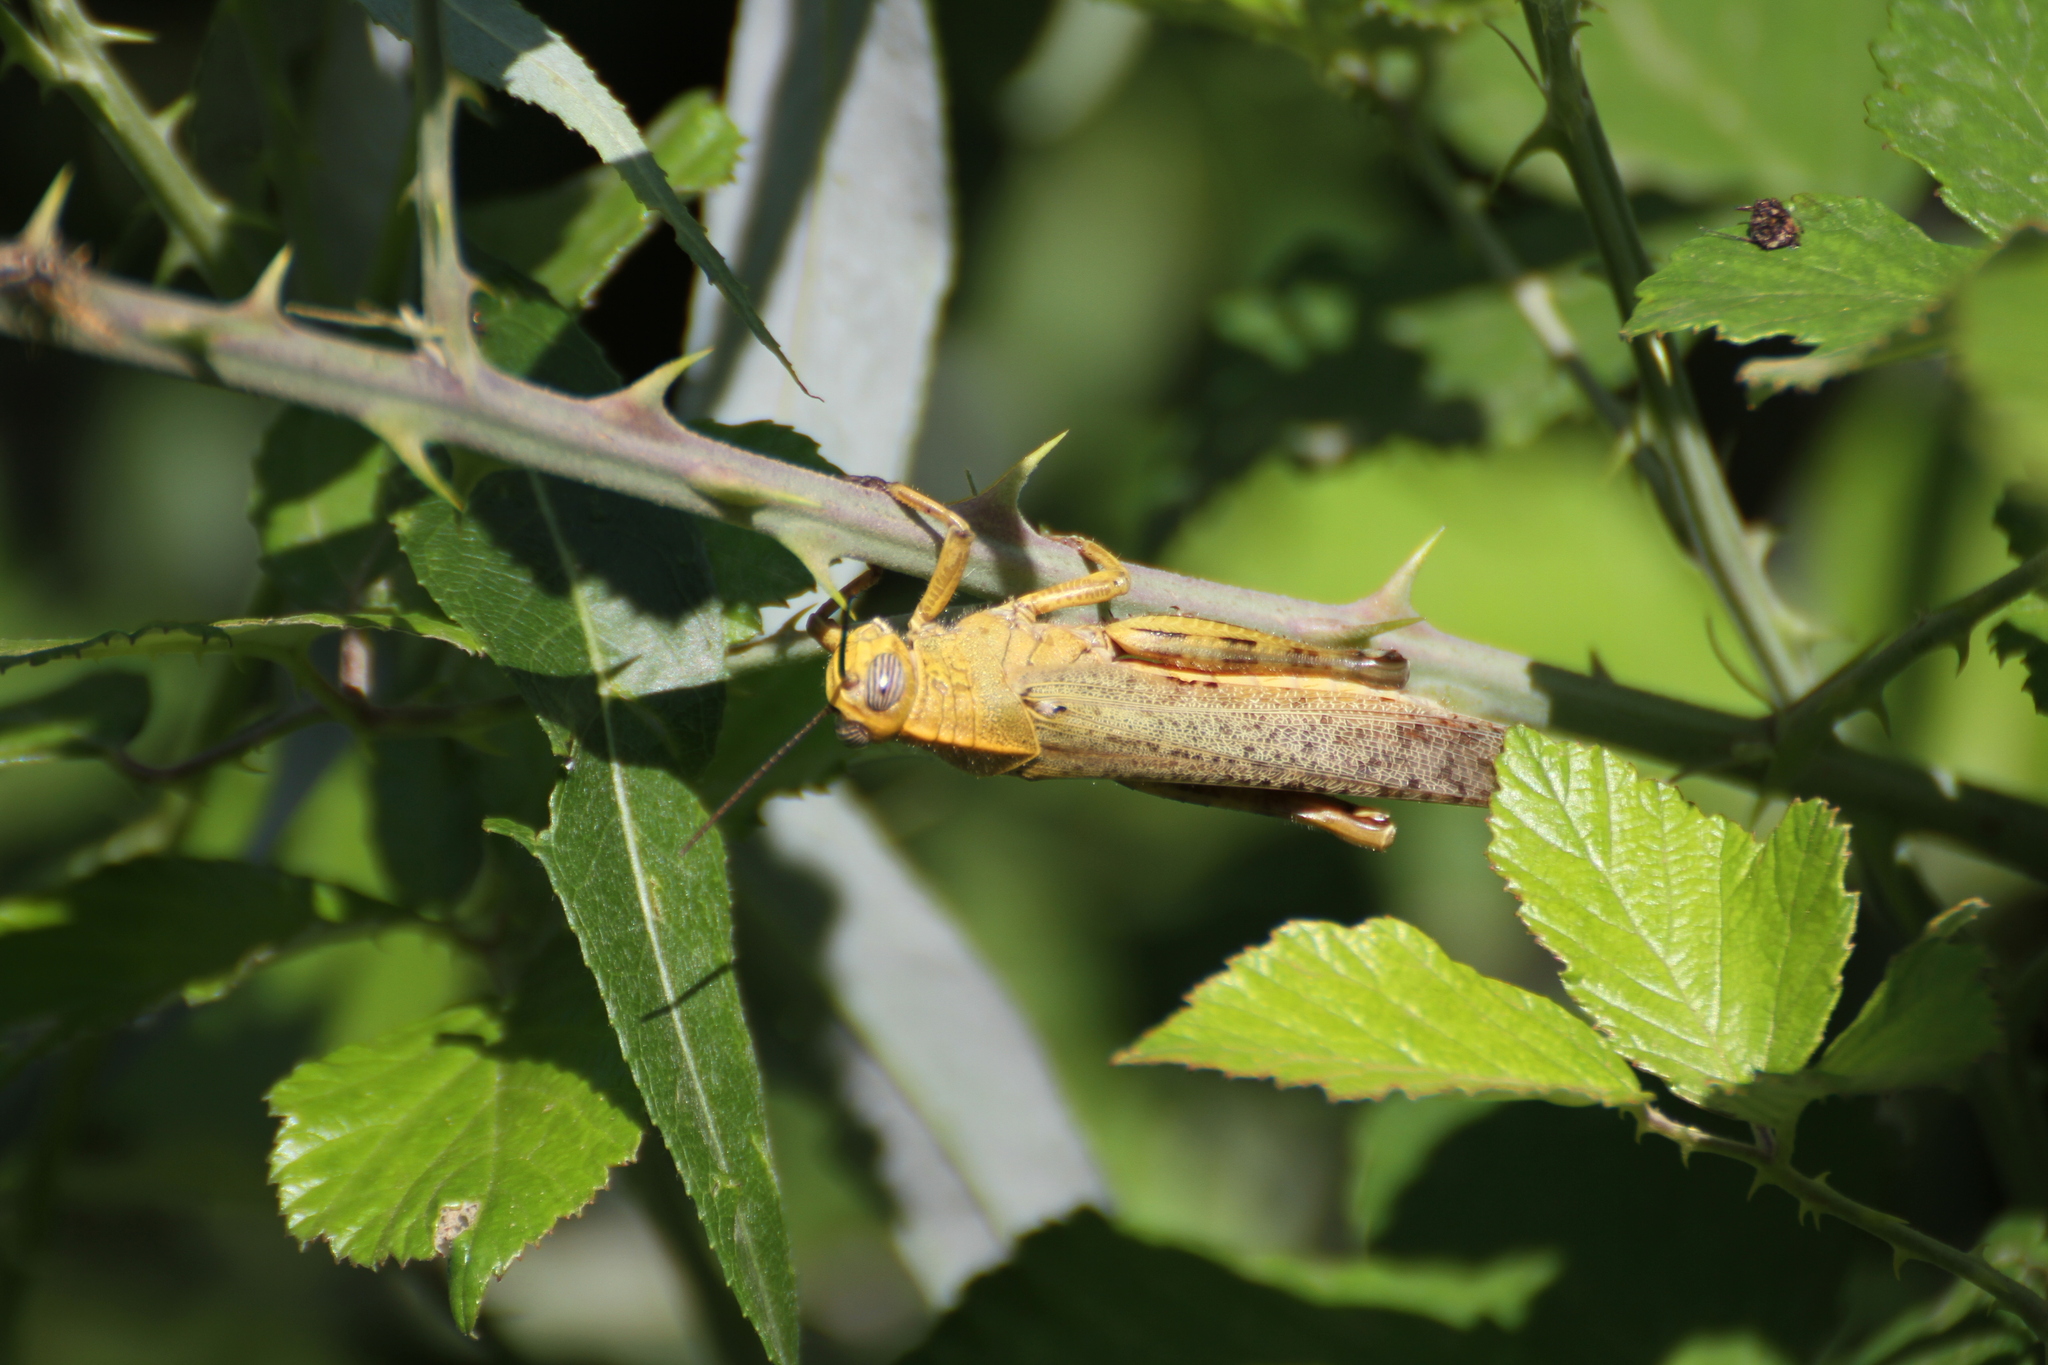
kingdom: Animalia
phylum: Arthropoda
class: Insecta
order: Orthoptera
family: Acrididae
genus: Anacridium
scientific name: Anacridium aegyptium
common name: Egyptian grasshopper
